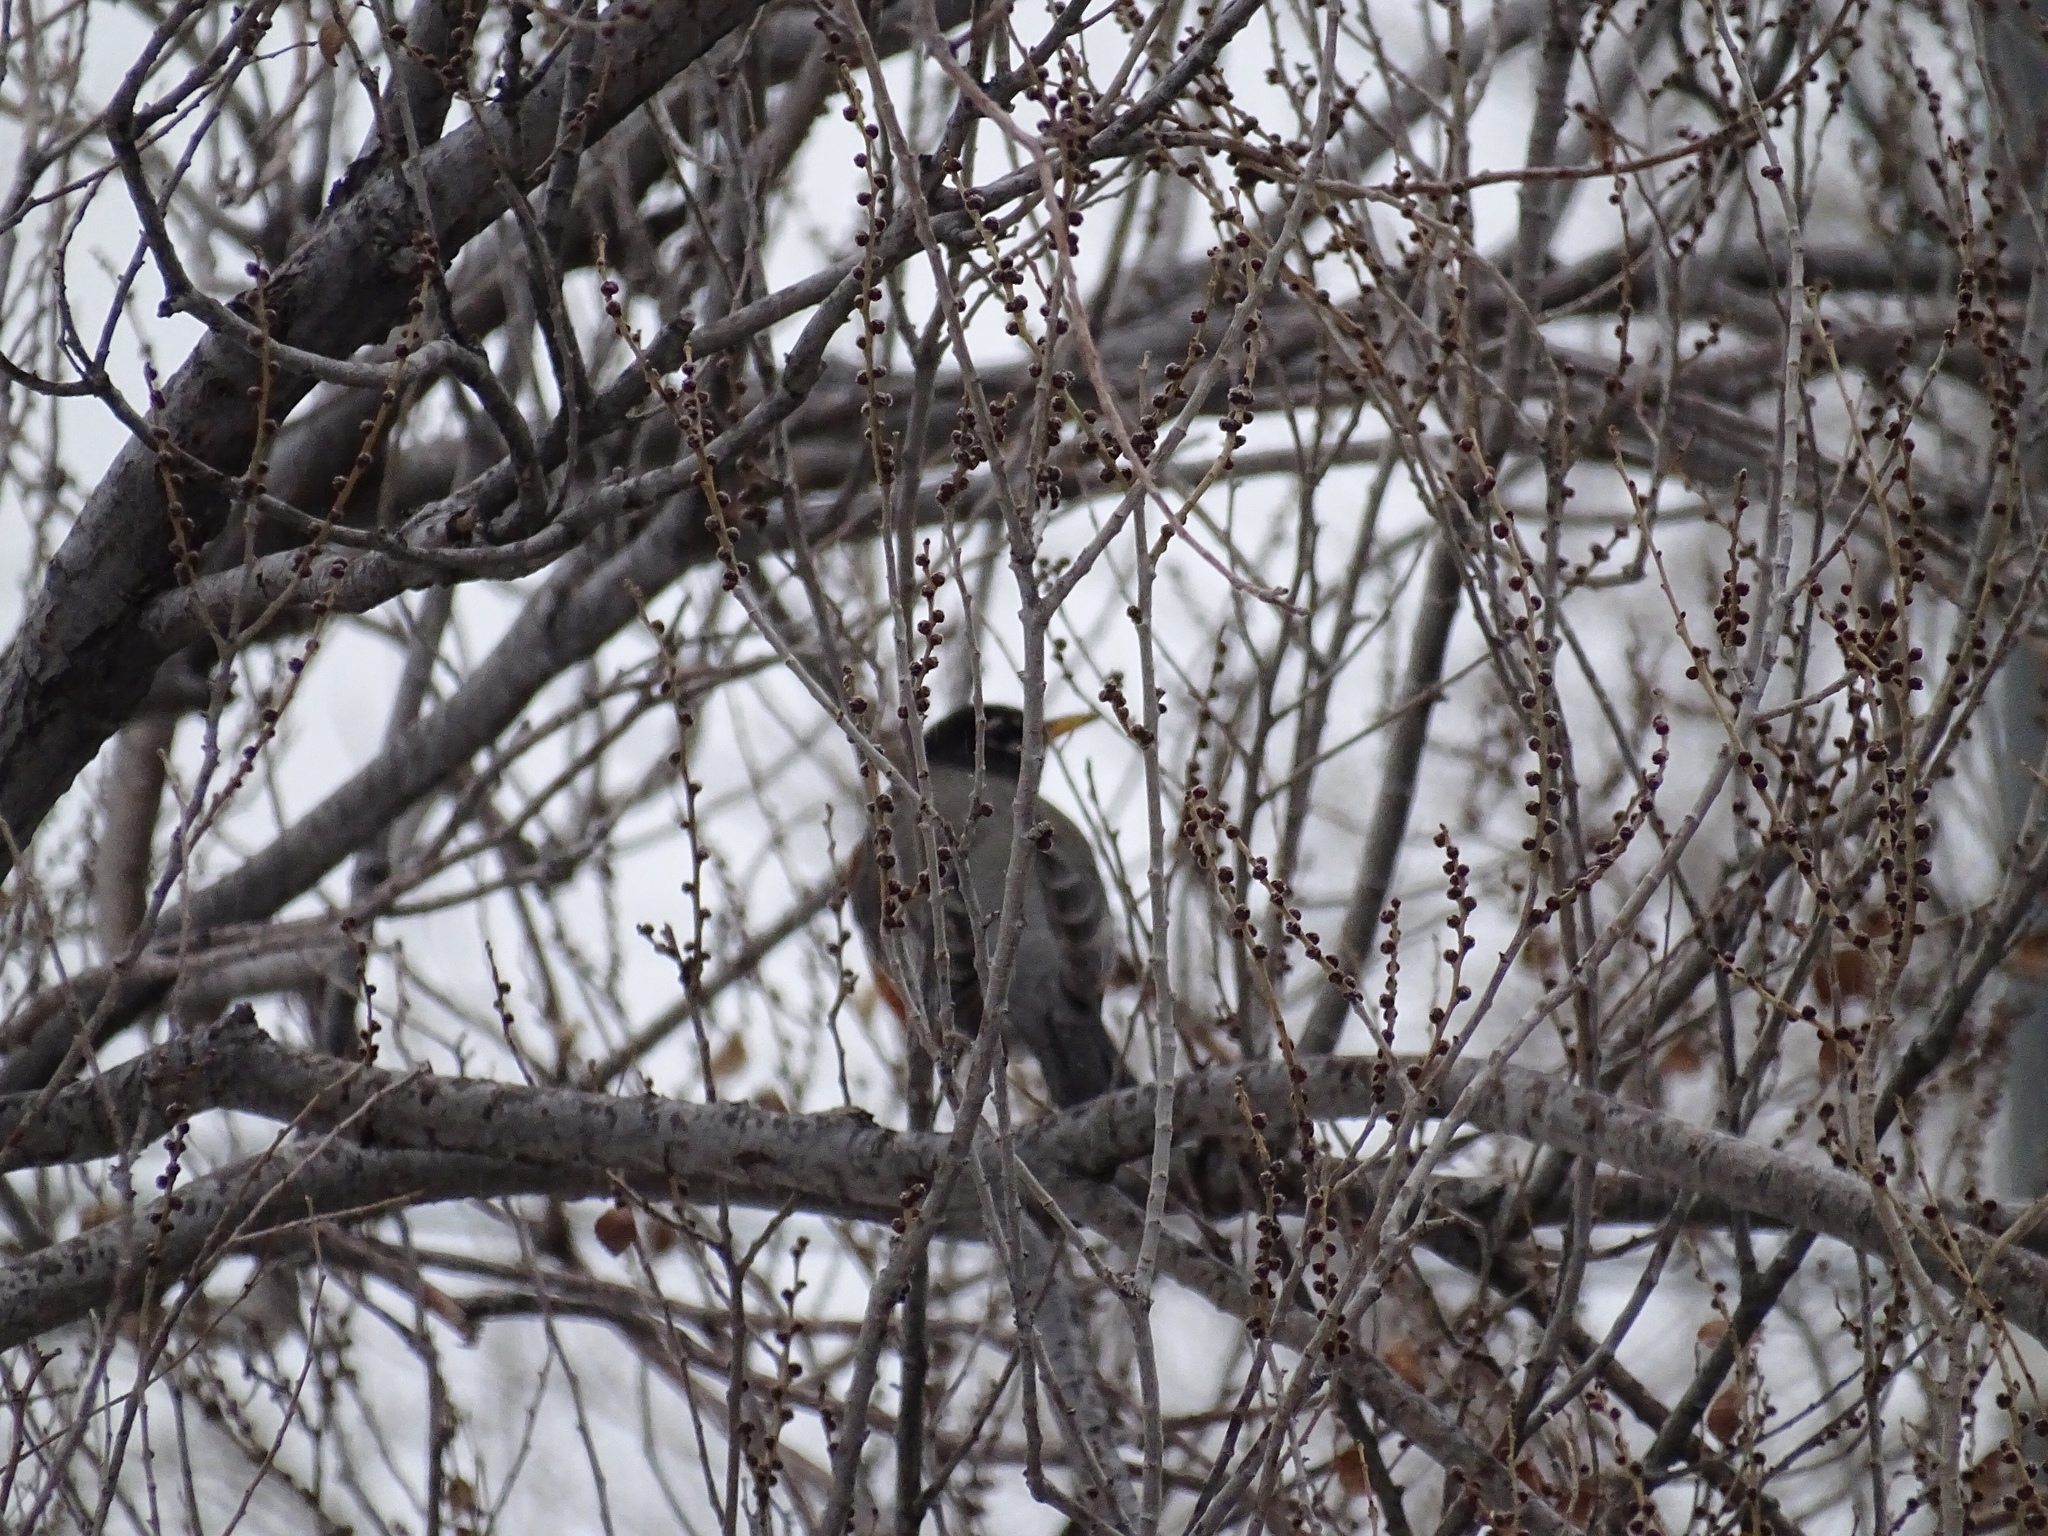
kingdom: Animalia
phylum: Chordata
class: Aves
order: Passeriformes
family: Turdidae
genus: Turdus
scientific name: Turdus migratorius
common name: American robin
